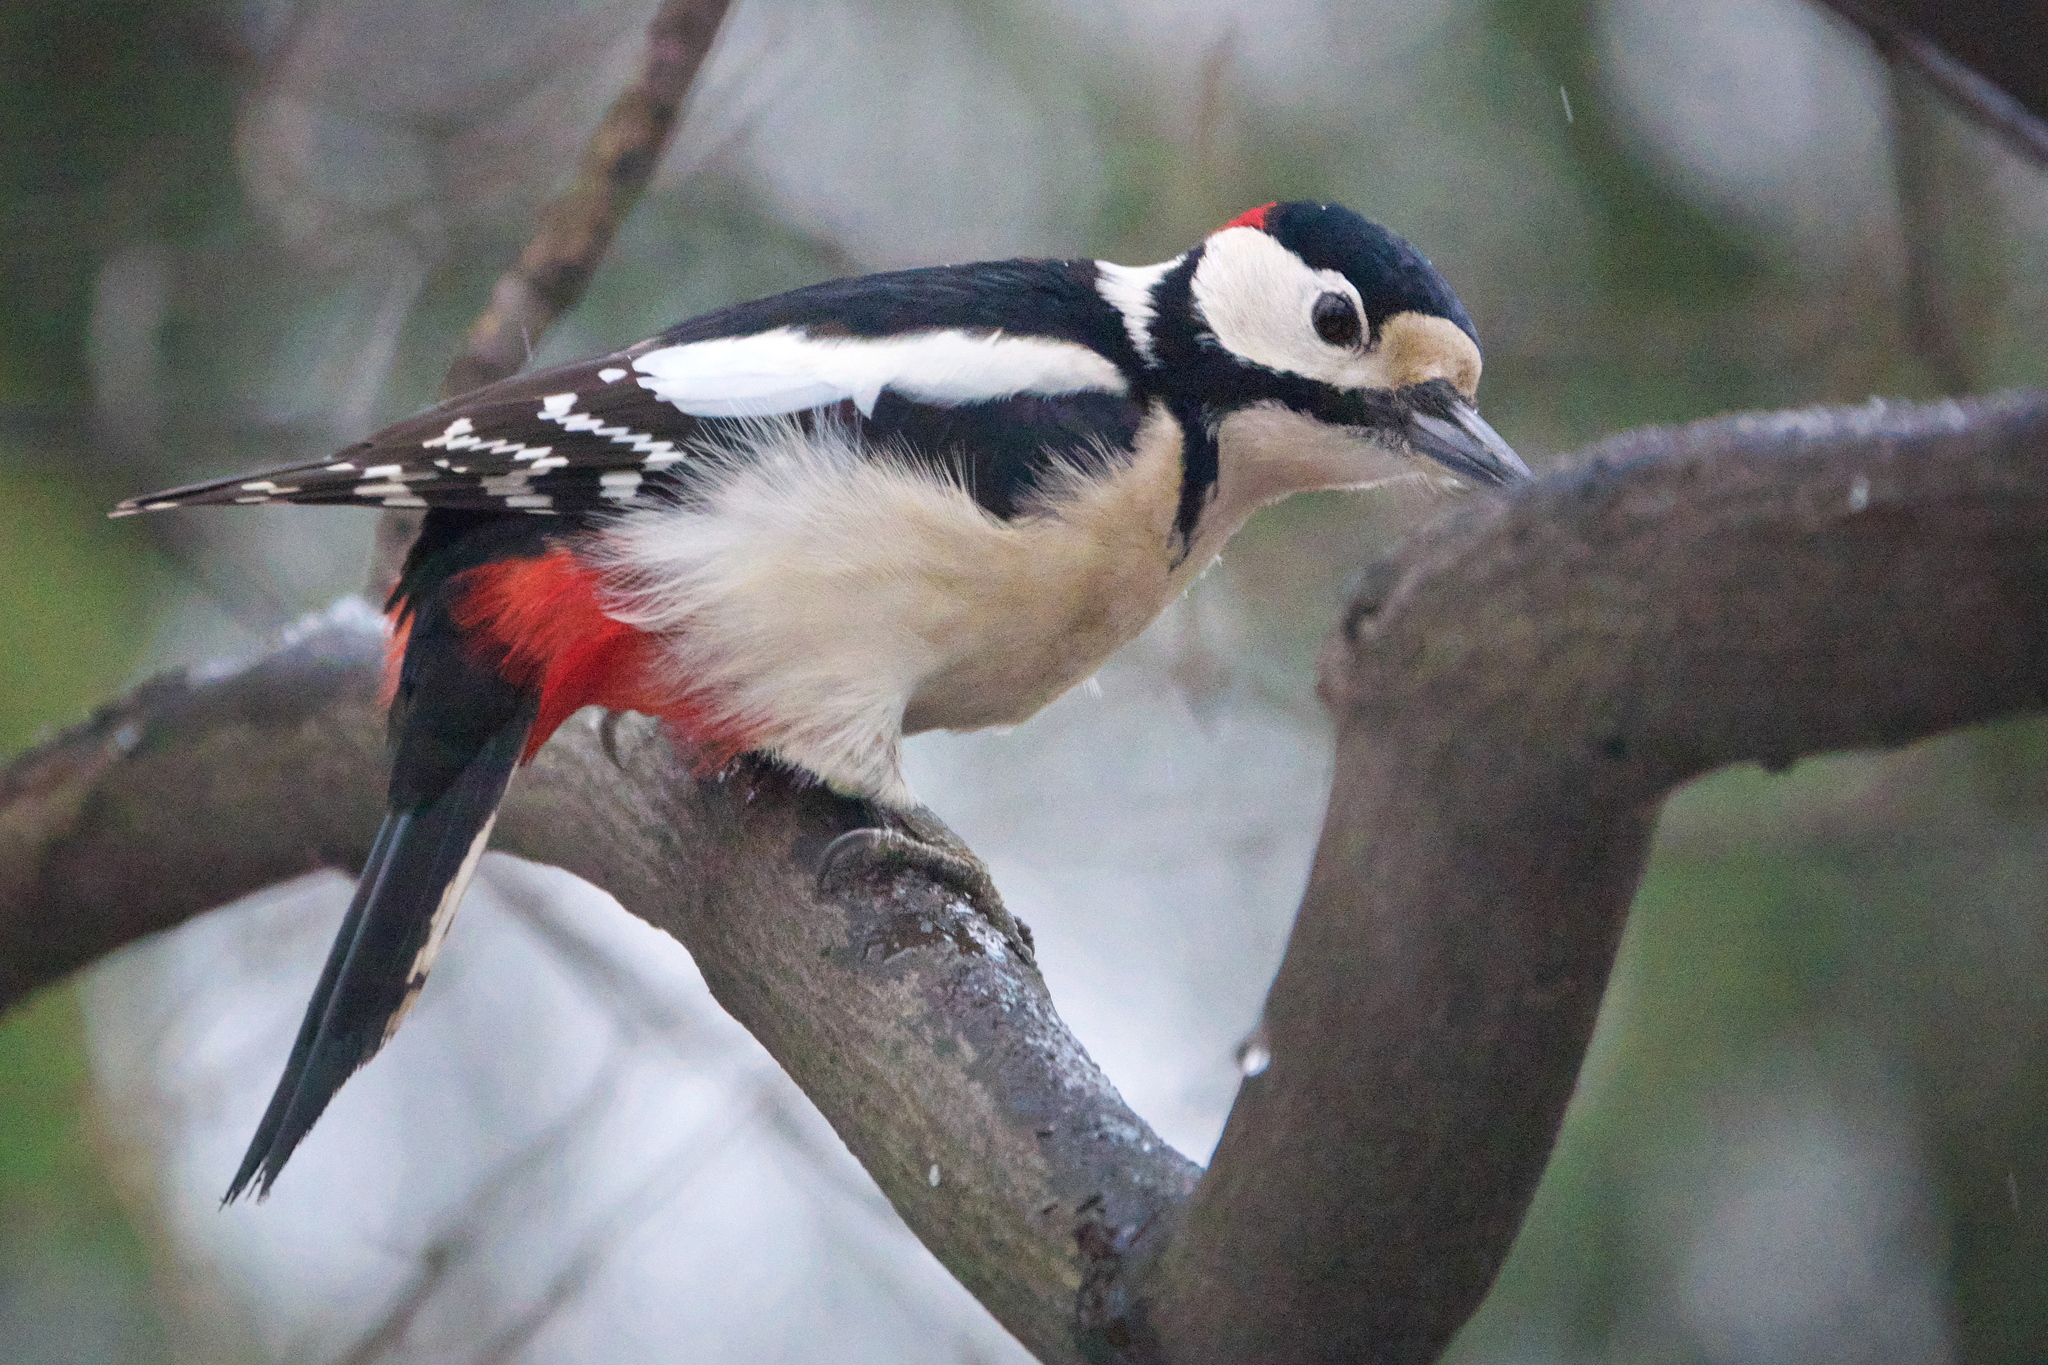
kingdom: Animalia
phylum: Chordata
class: Aves
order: Piciformes
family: Picidae
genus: Dendrocopos
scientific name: Dendrocopos major
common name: Great spotted woodpecker
